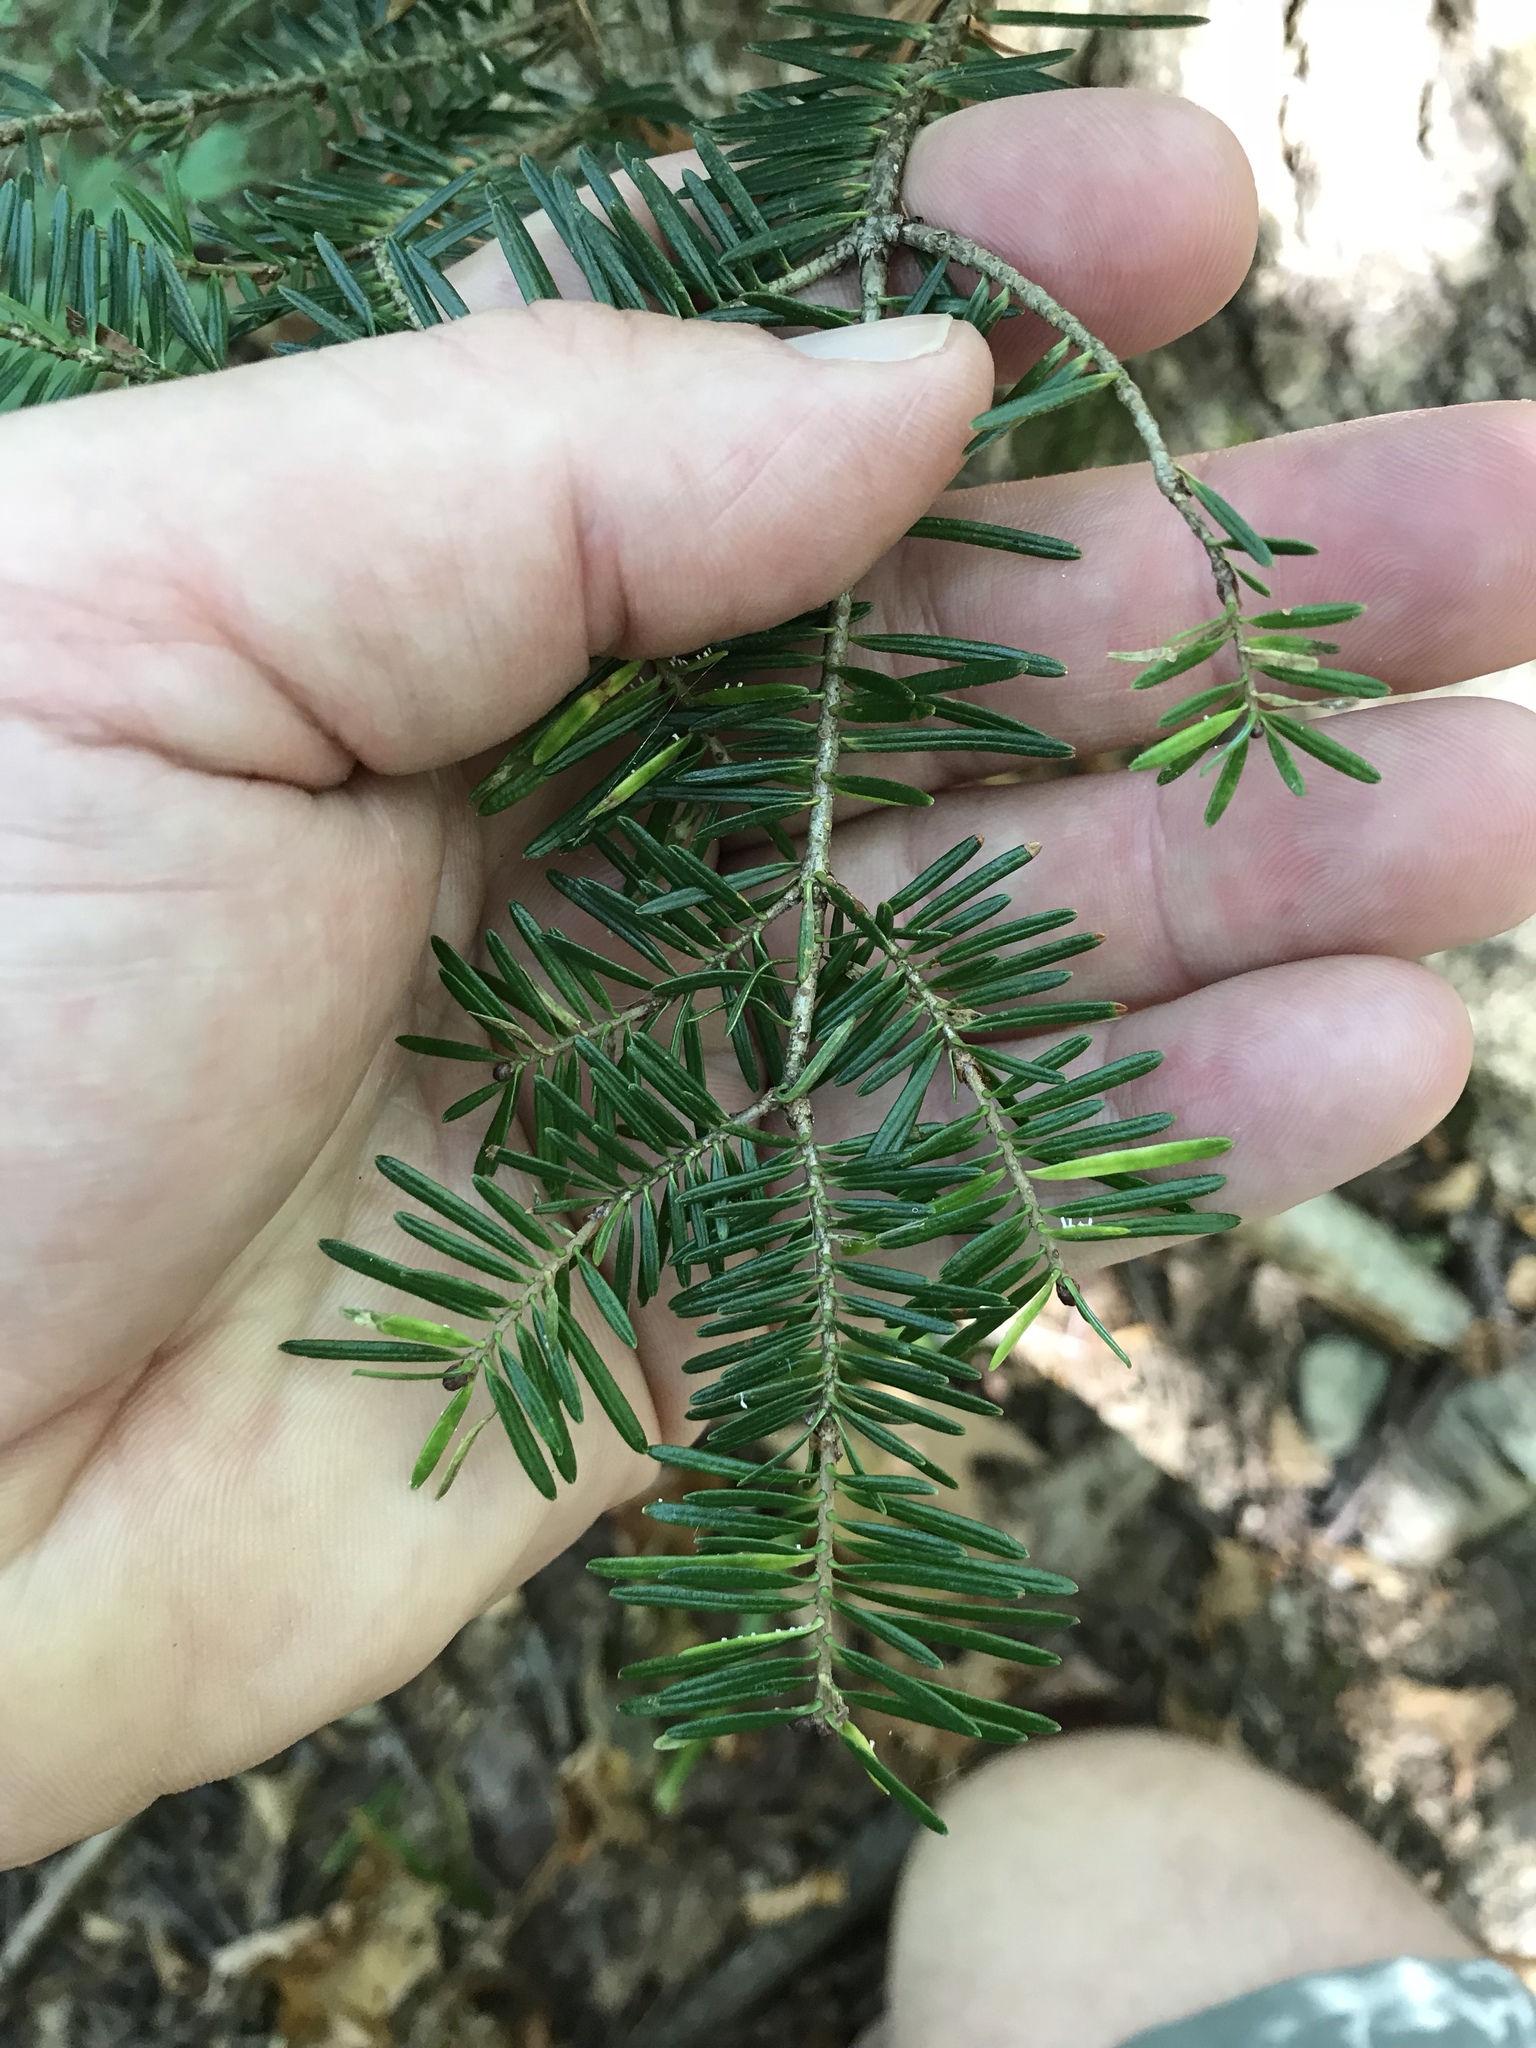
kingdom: Plantae
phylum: Tracheophyta
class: Pinopsida
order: Pinales
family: Pinaceae
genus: Abies
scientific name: Abies balsamea
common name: Balsam fir
